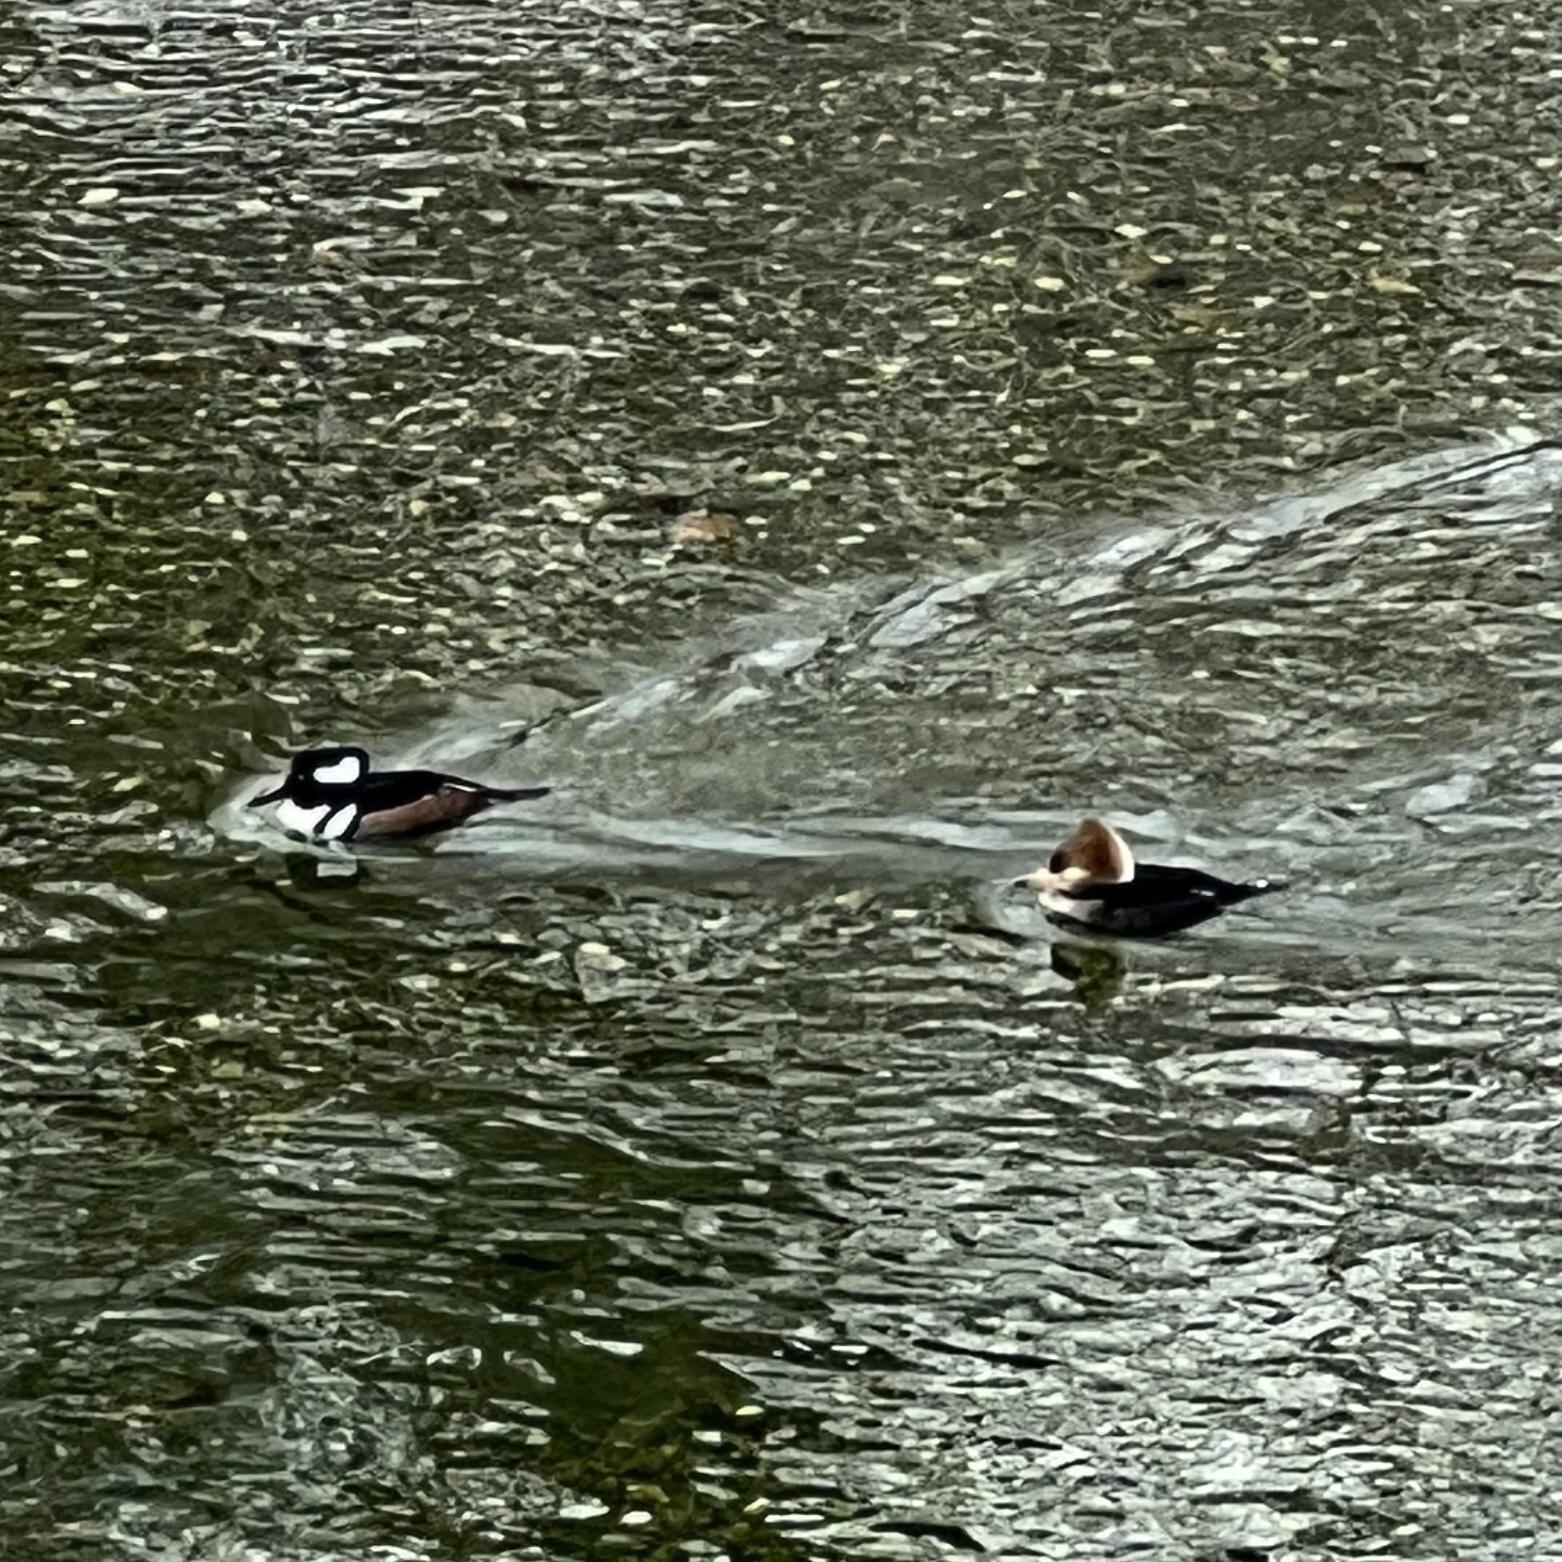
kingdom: Animalia
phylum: Chordata
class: Aves
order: Anseriformes
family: Anatidae
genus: Lophodytes
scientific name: Lophodytes cucullatus
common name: Hooded merganser
